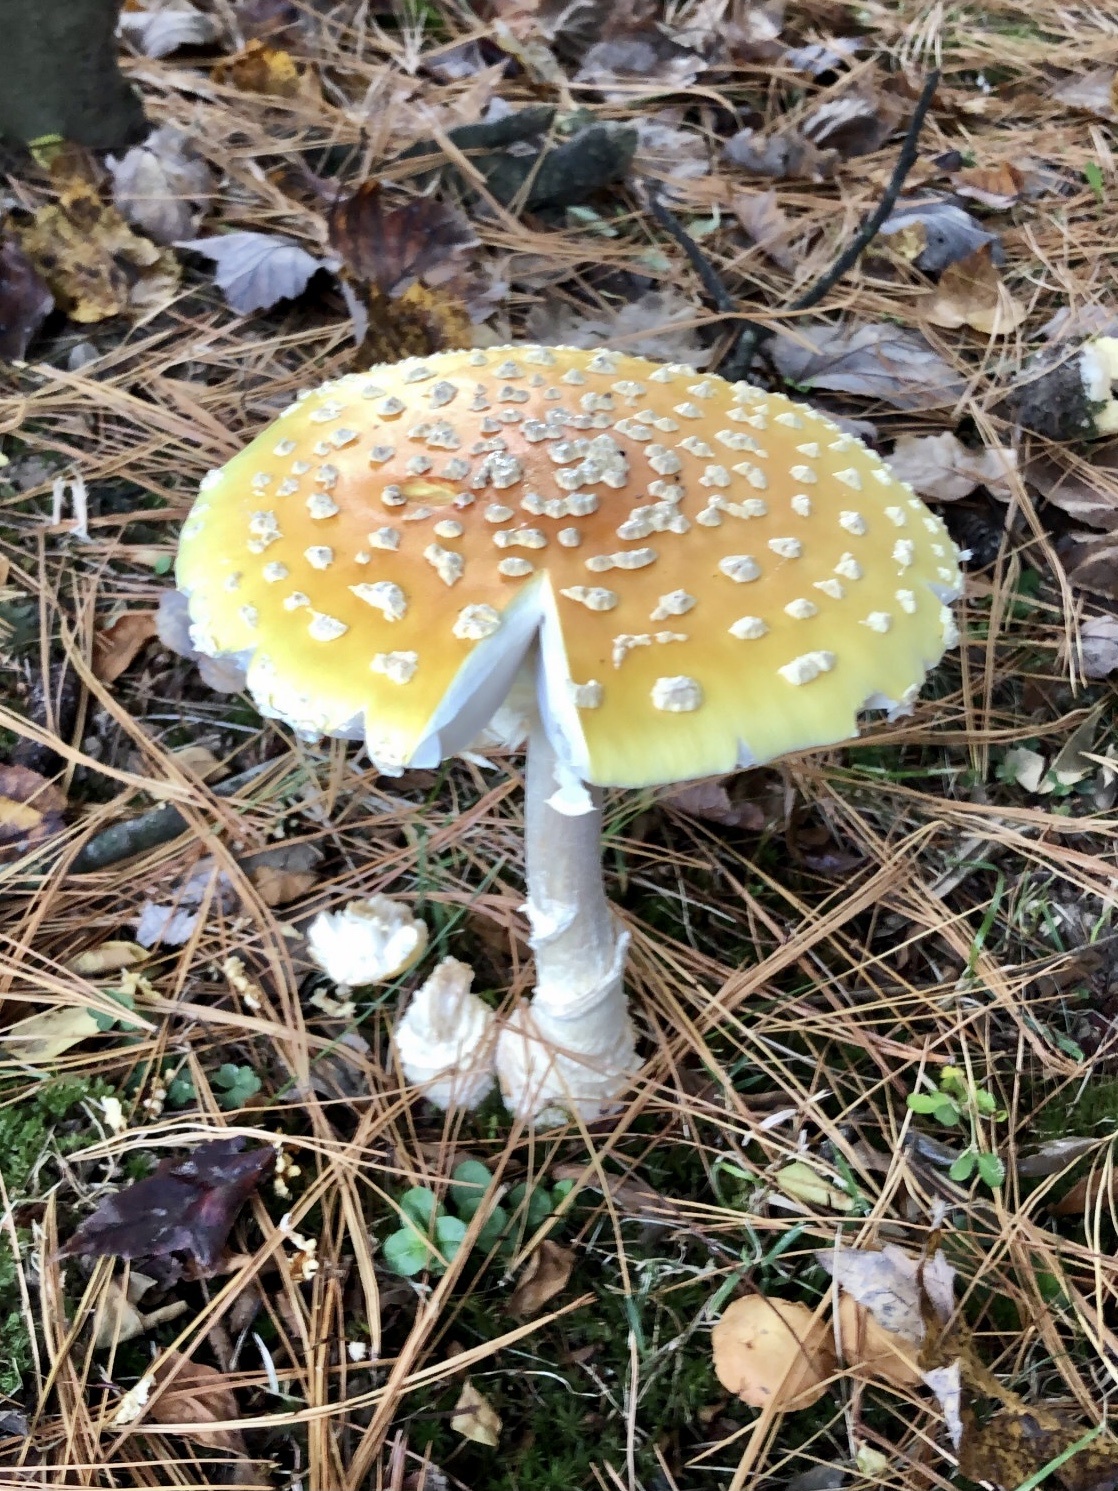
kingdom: Fungi
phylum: Basidiomycota
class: Agaricomycetes
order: Agaricales
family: Amanitaceae
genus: Amanita
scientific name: Amanita muscaria
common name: Fly agaric
